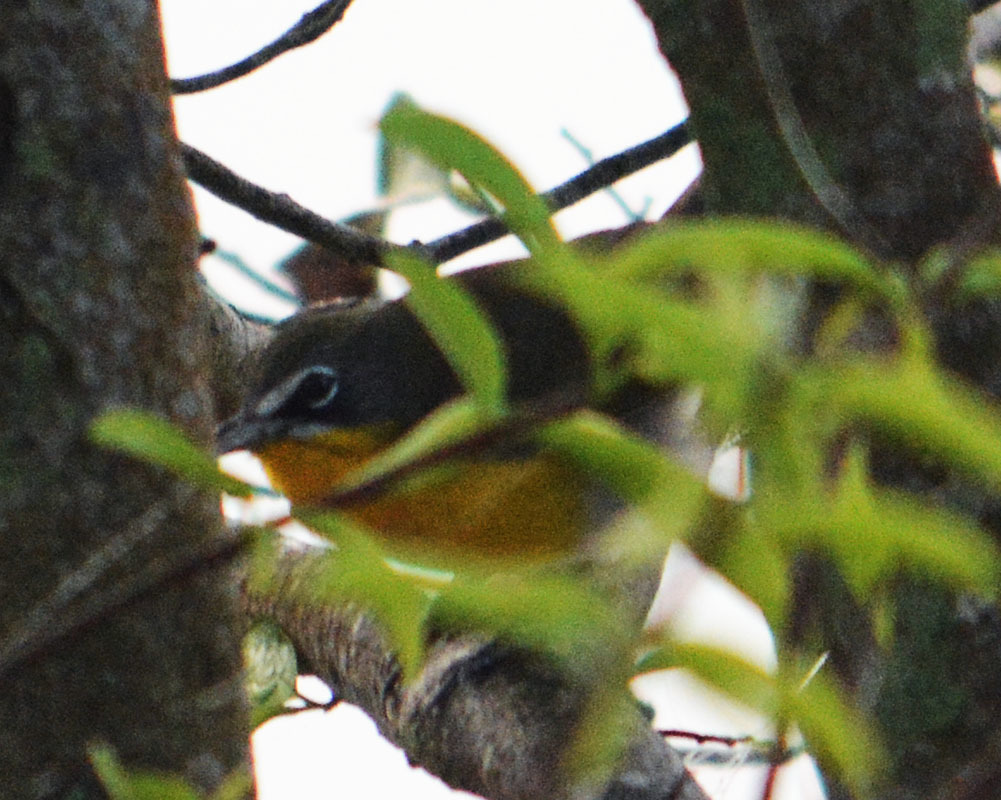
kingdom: Animalia
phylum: Chordata
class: Aves
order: Passeriformes
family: Parulidae
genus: Icteria
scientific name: Icteria virens
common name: Yellow-breasted chat
